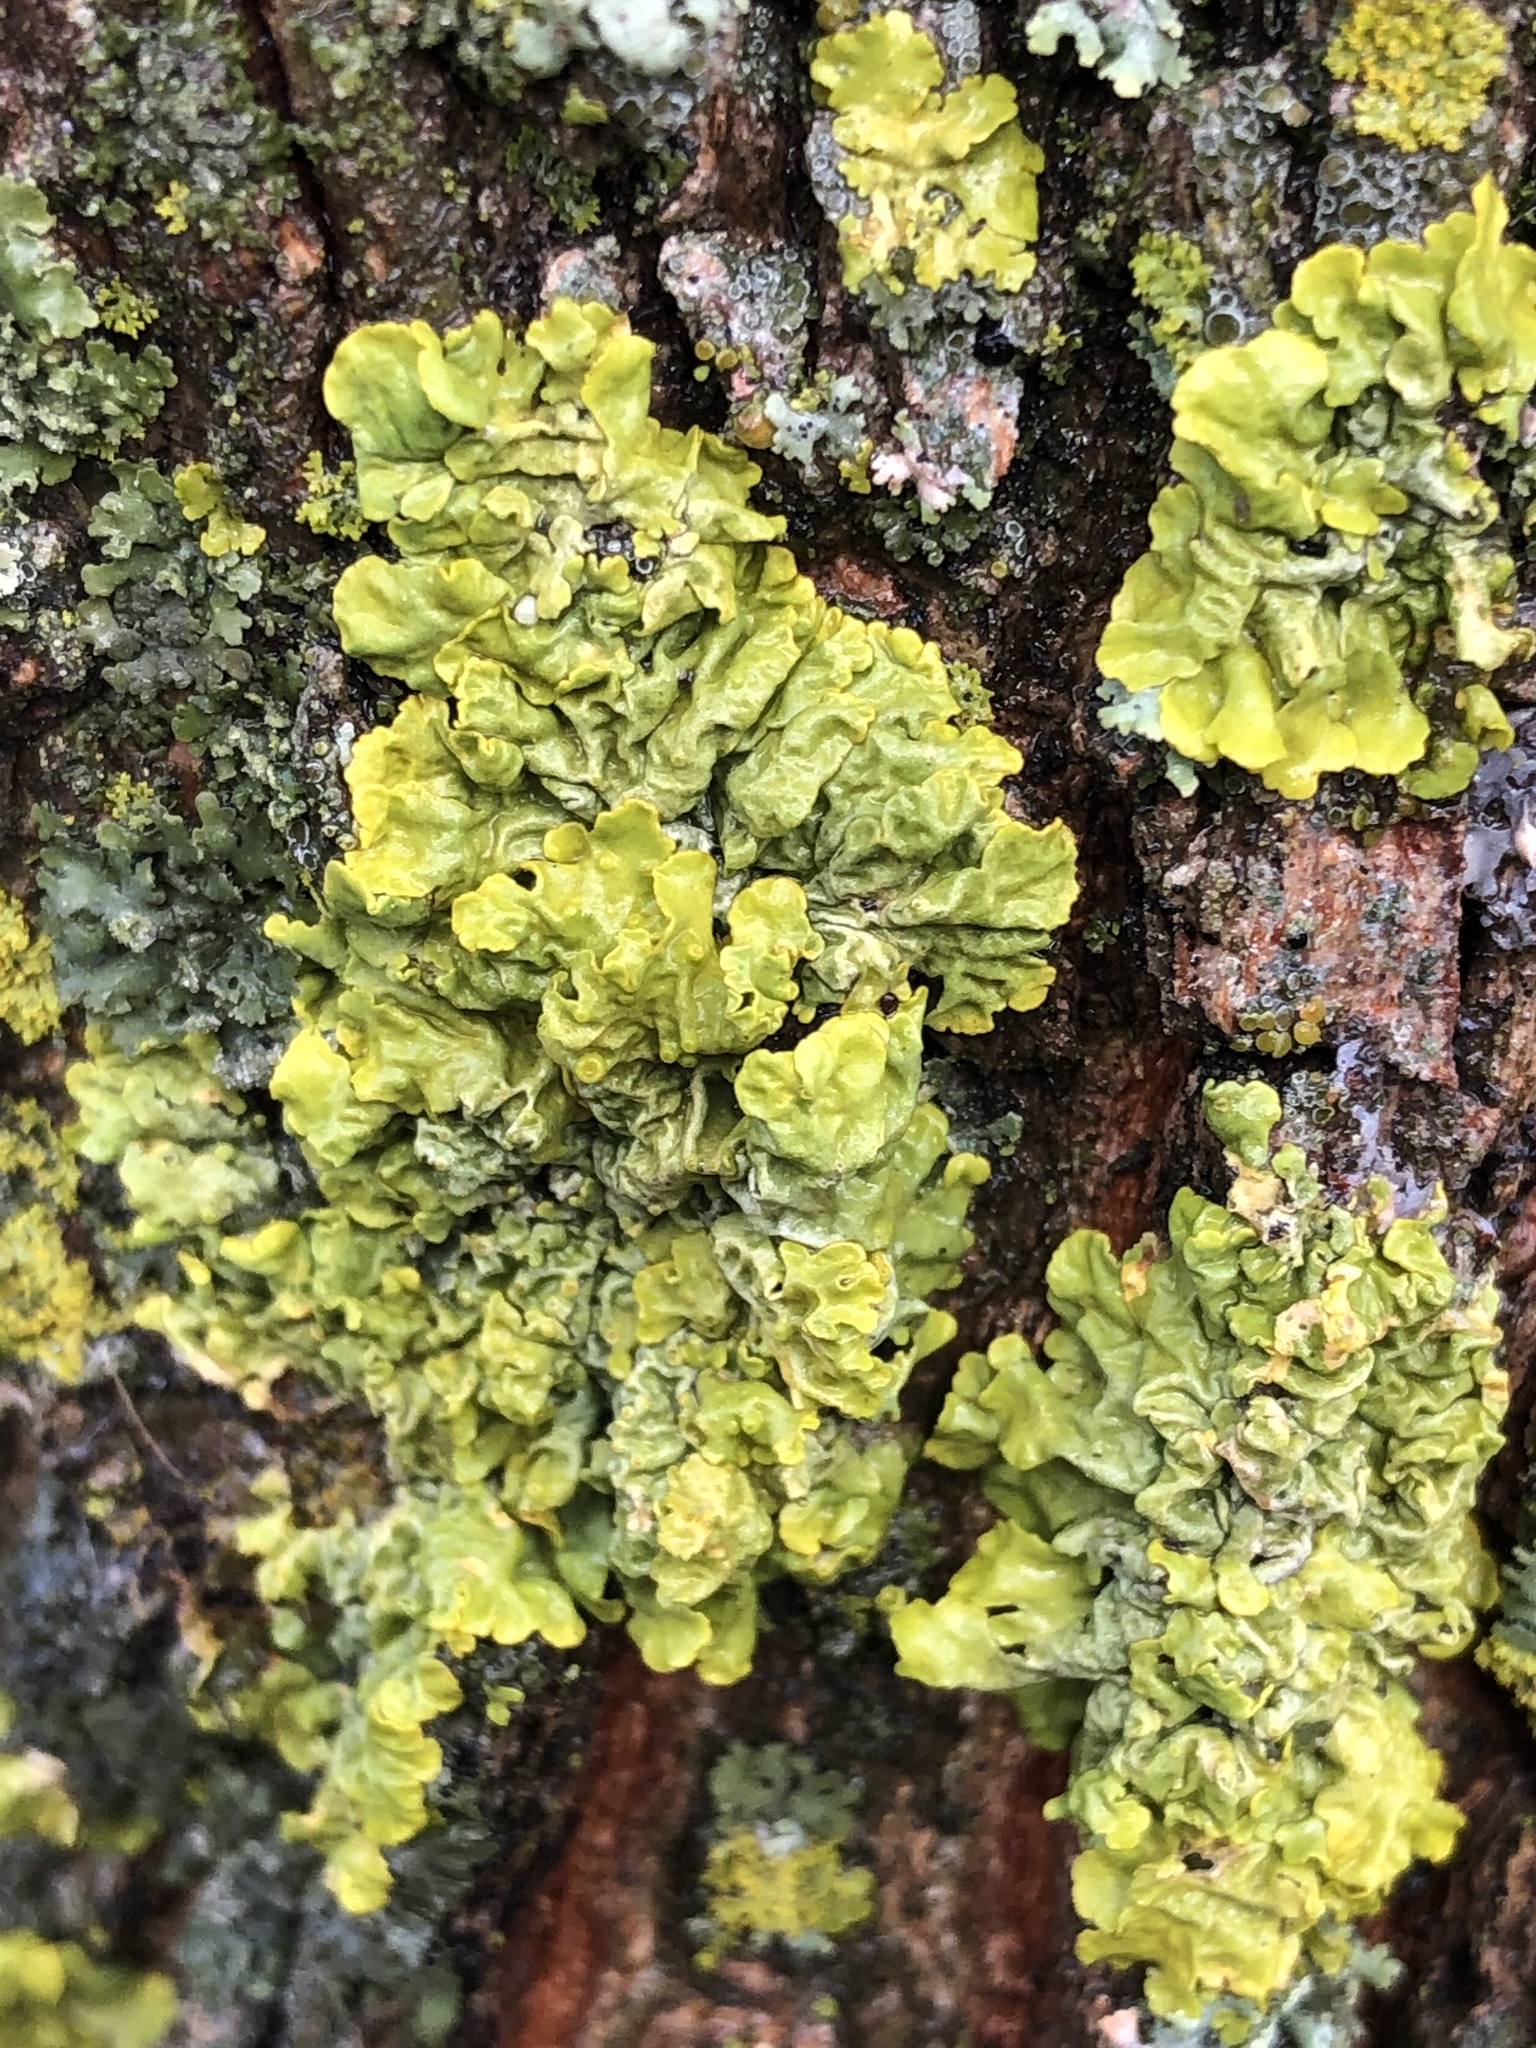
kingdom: Fungi
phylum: Ascomycota
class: Lecanoromycetes
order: Teloschistales
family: Teloschistaceae
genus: Xanthoria
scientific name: Xanthoria parietina
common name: Common orange lichen
